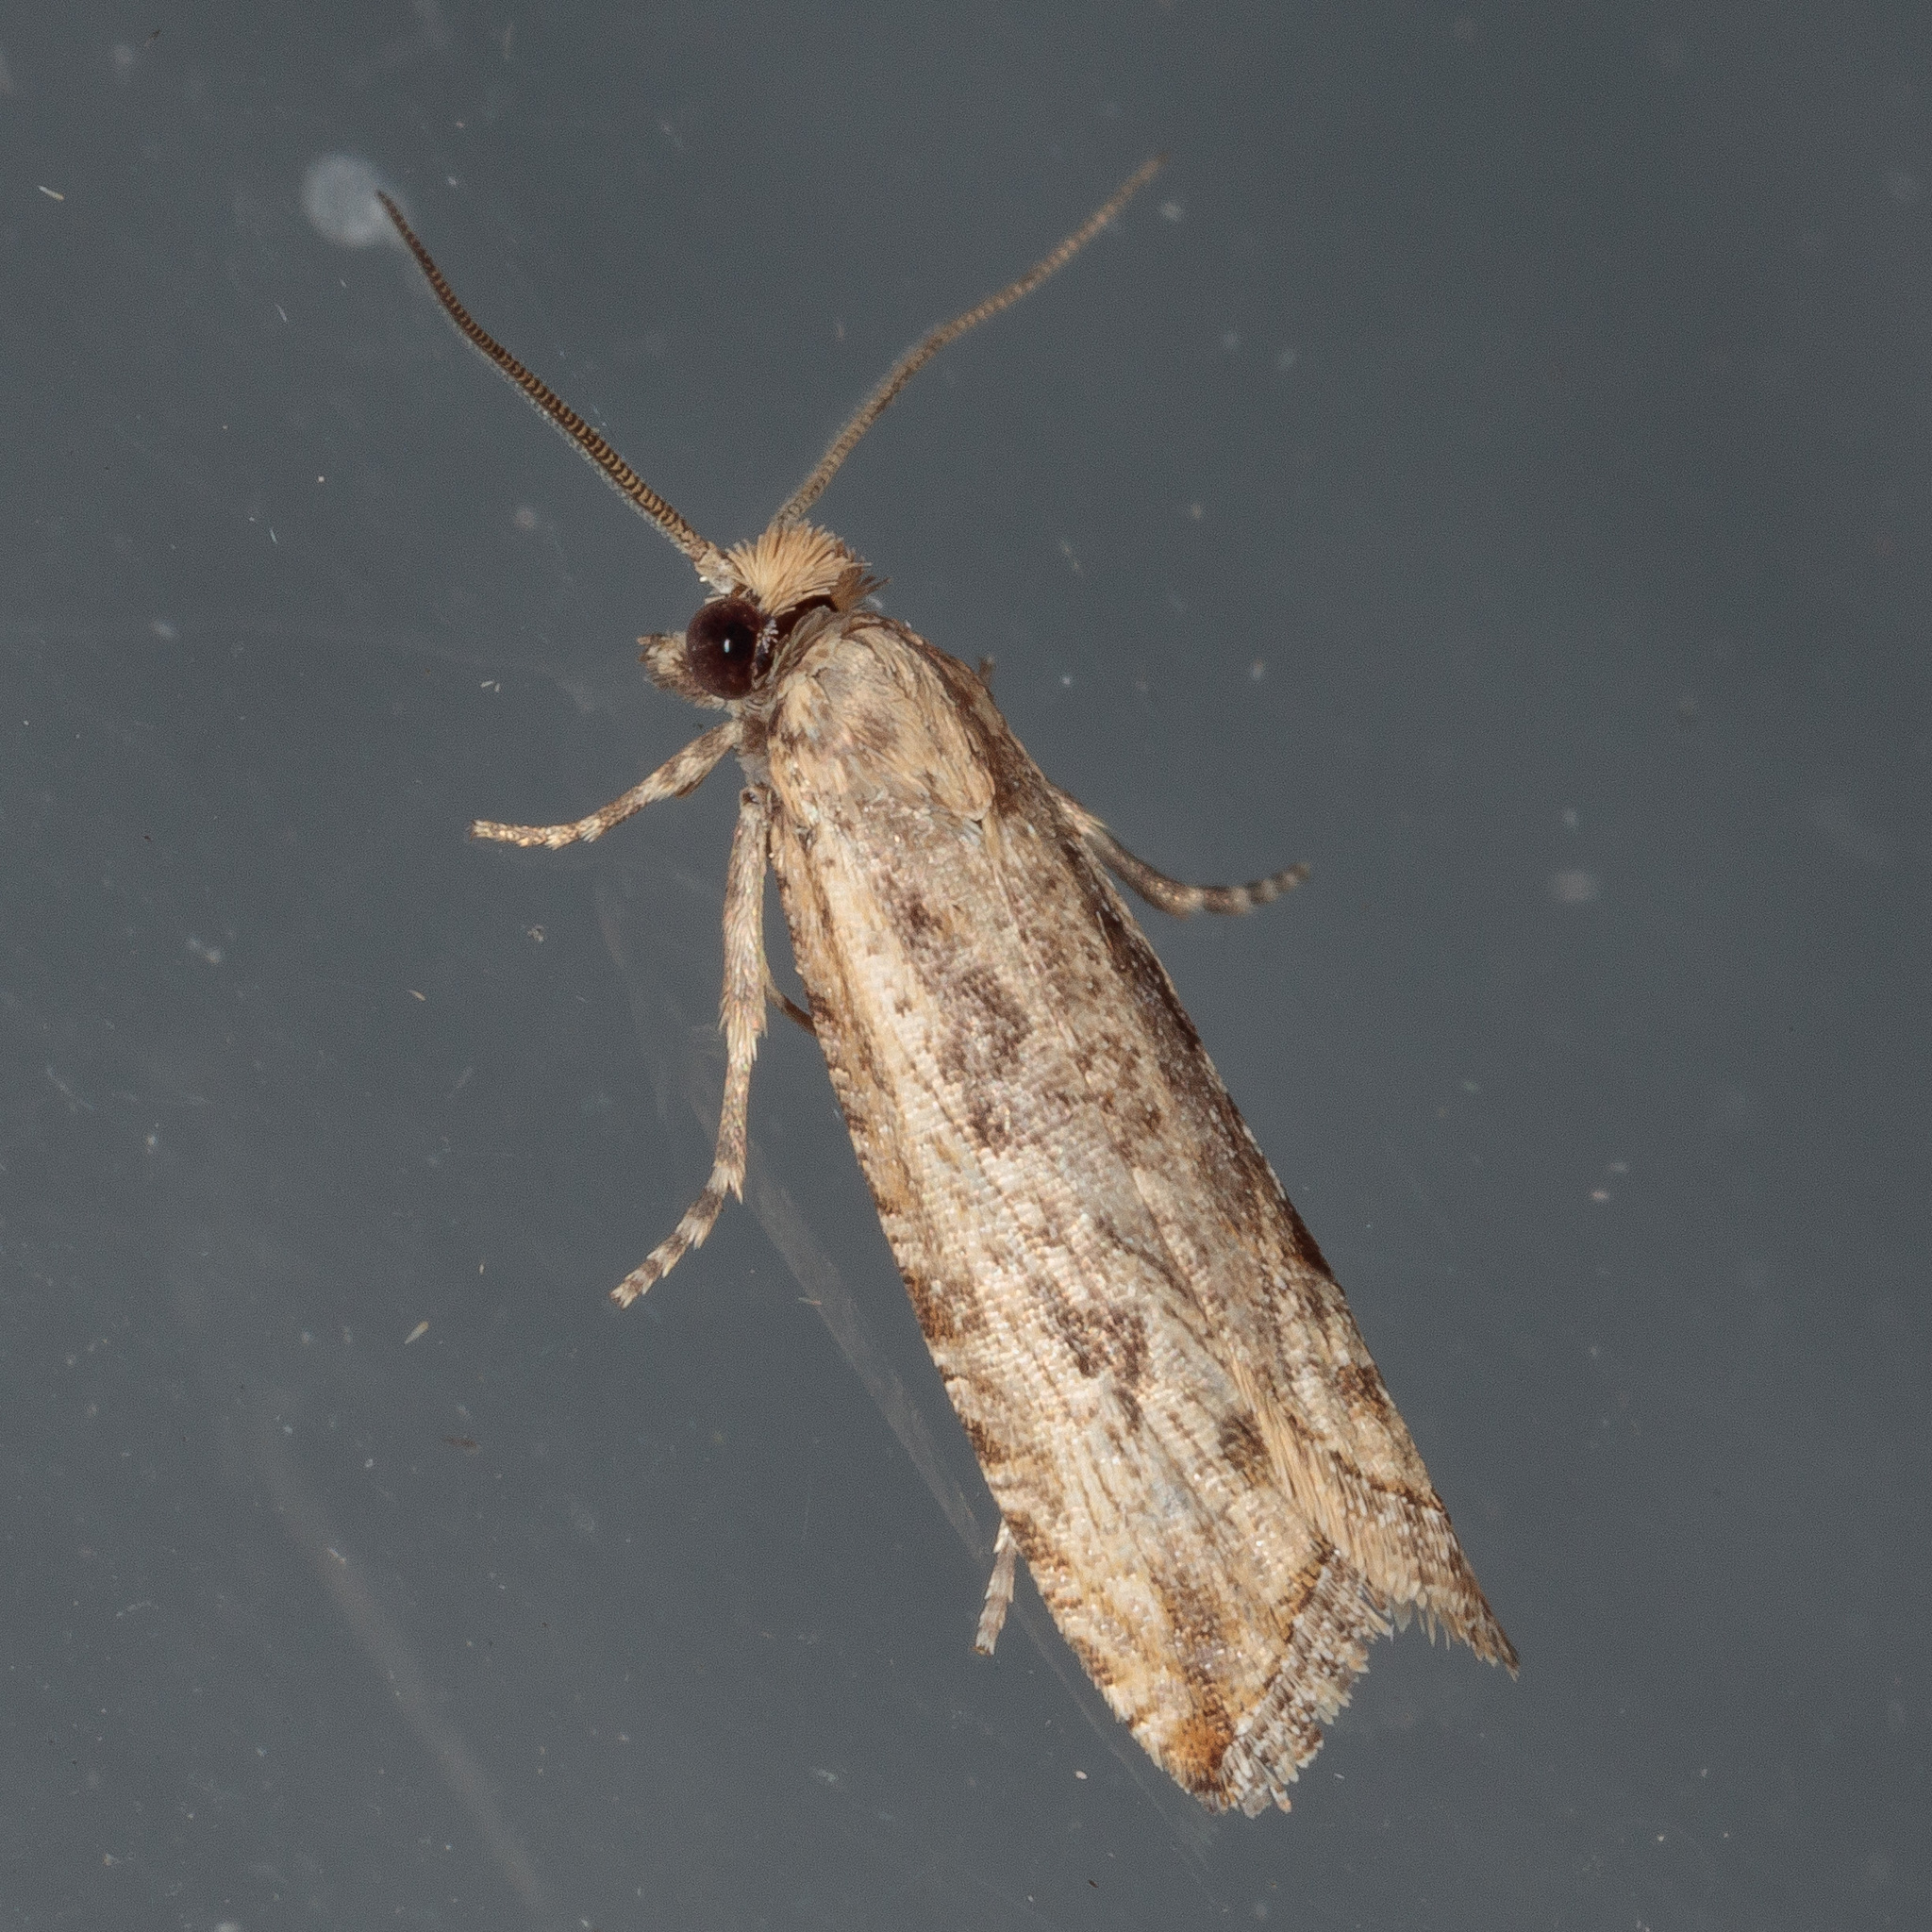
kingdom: Animalia
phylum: Arthropoda
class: Insecta
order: Lepidoptera
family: Tortricidae
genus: Bactra
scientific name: Bactra verutana
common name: Javelin moth
